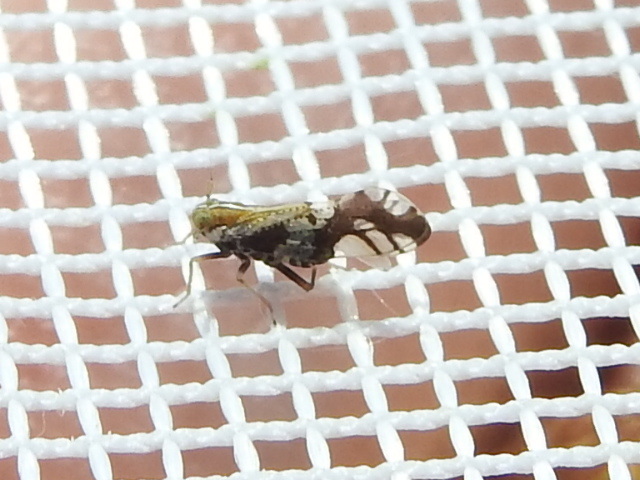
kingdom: Animalia
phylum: Arthropoda
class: Insecta
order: Hemiptera
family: Delphacidae
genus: Liburniella
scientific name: Liburniella ornata
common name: Ornate planthopper
